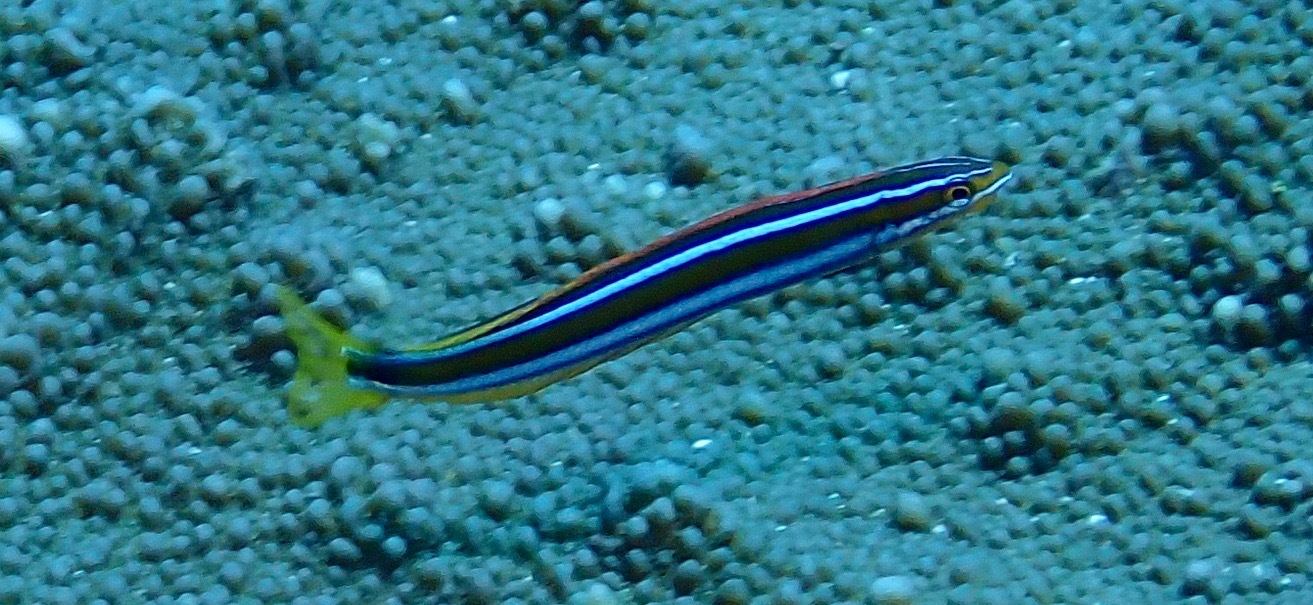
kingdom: Animalia
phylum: Chordata
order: Perciformes
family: Blenniidae
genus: Plagiotremus
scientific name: Plagiotremus rhinorhynchos
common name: Bluestriped fangblenny
